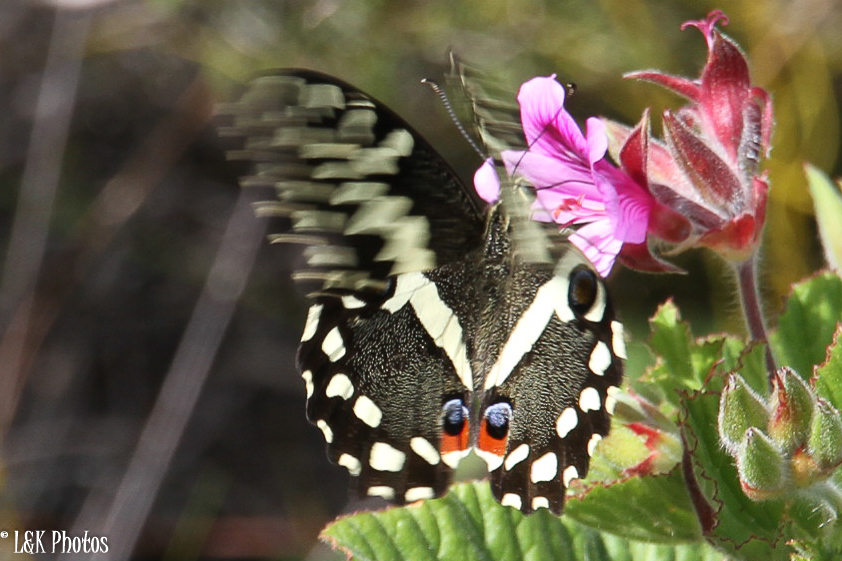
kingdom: Animalia
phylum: Arthropoda
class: Insecta
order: Lepidoptera
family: Papilionidae
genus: Papilio
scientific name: Papilio demodocus
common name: Christmas butterfly
